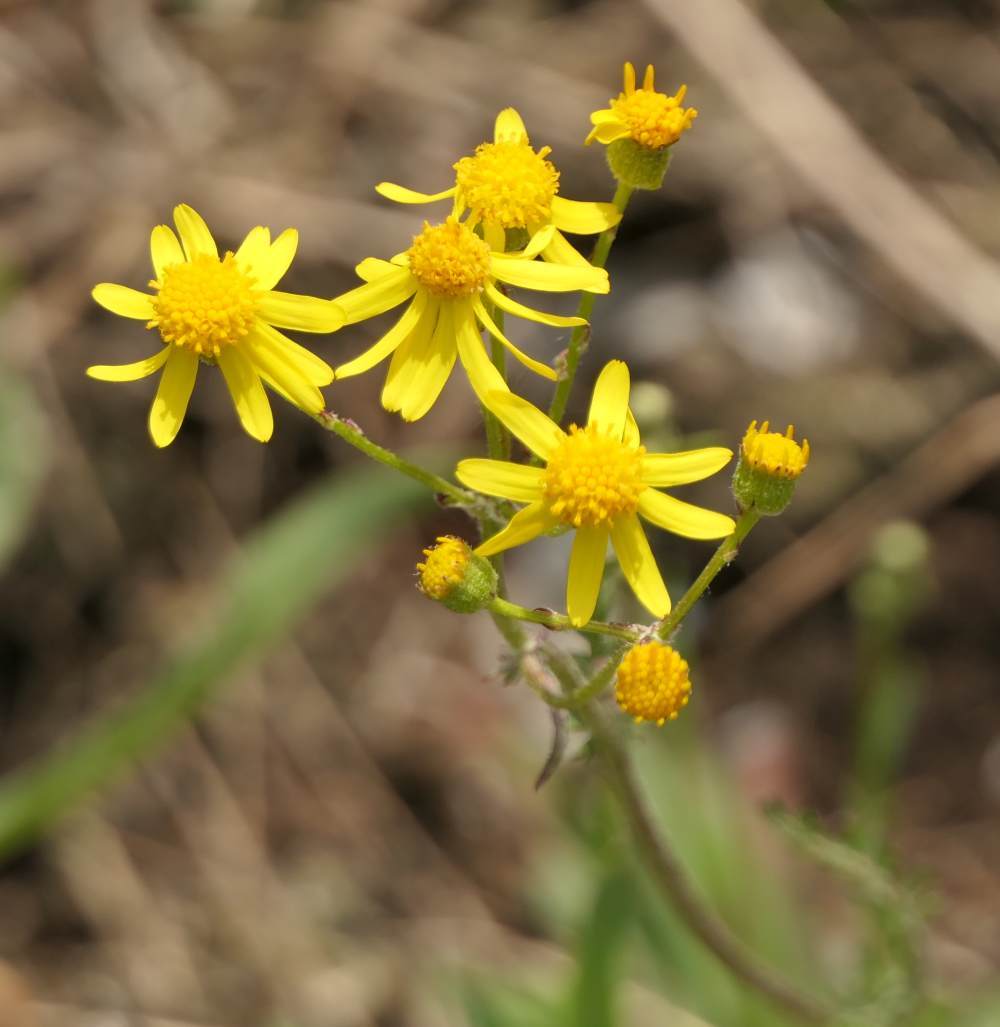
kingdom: Plantae
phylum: Tracheophyta
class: Magnoliopsida
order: Asterales
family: Asteraceae
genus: Packera
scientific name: Packera paupercula
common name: Balsam groundsel
